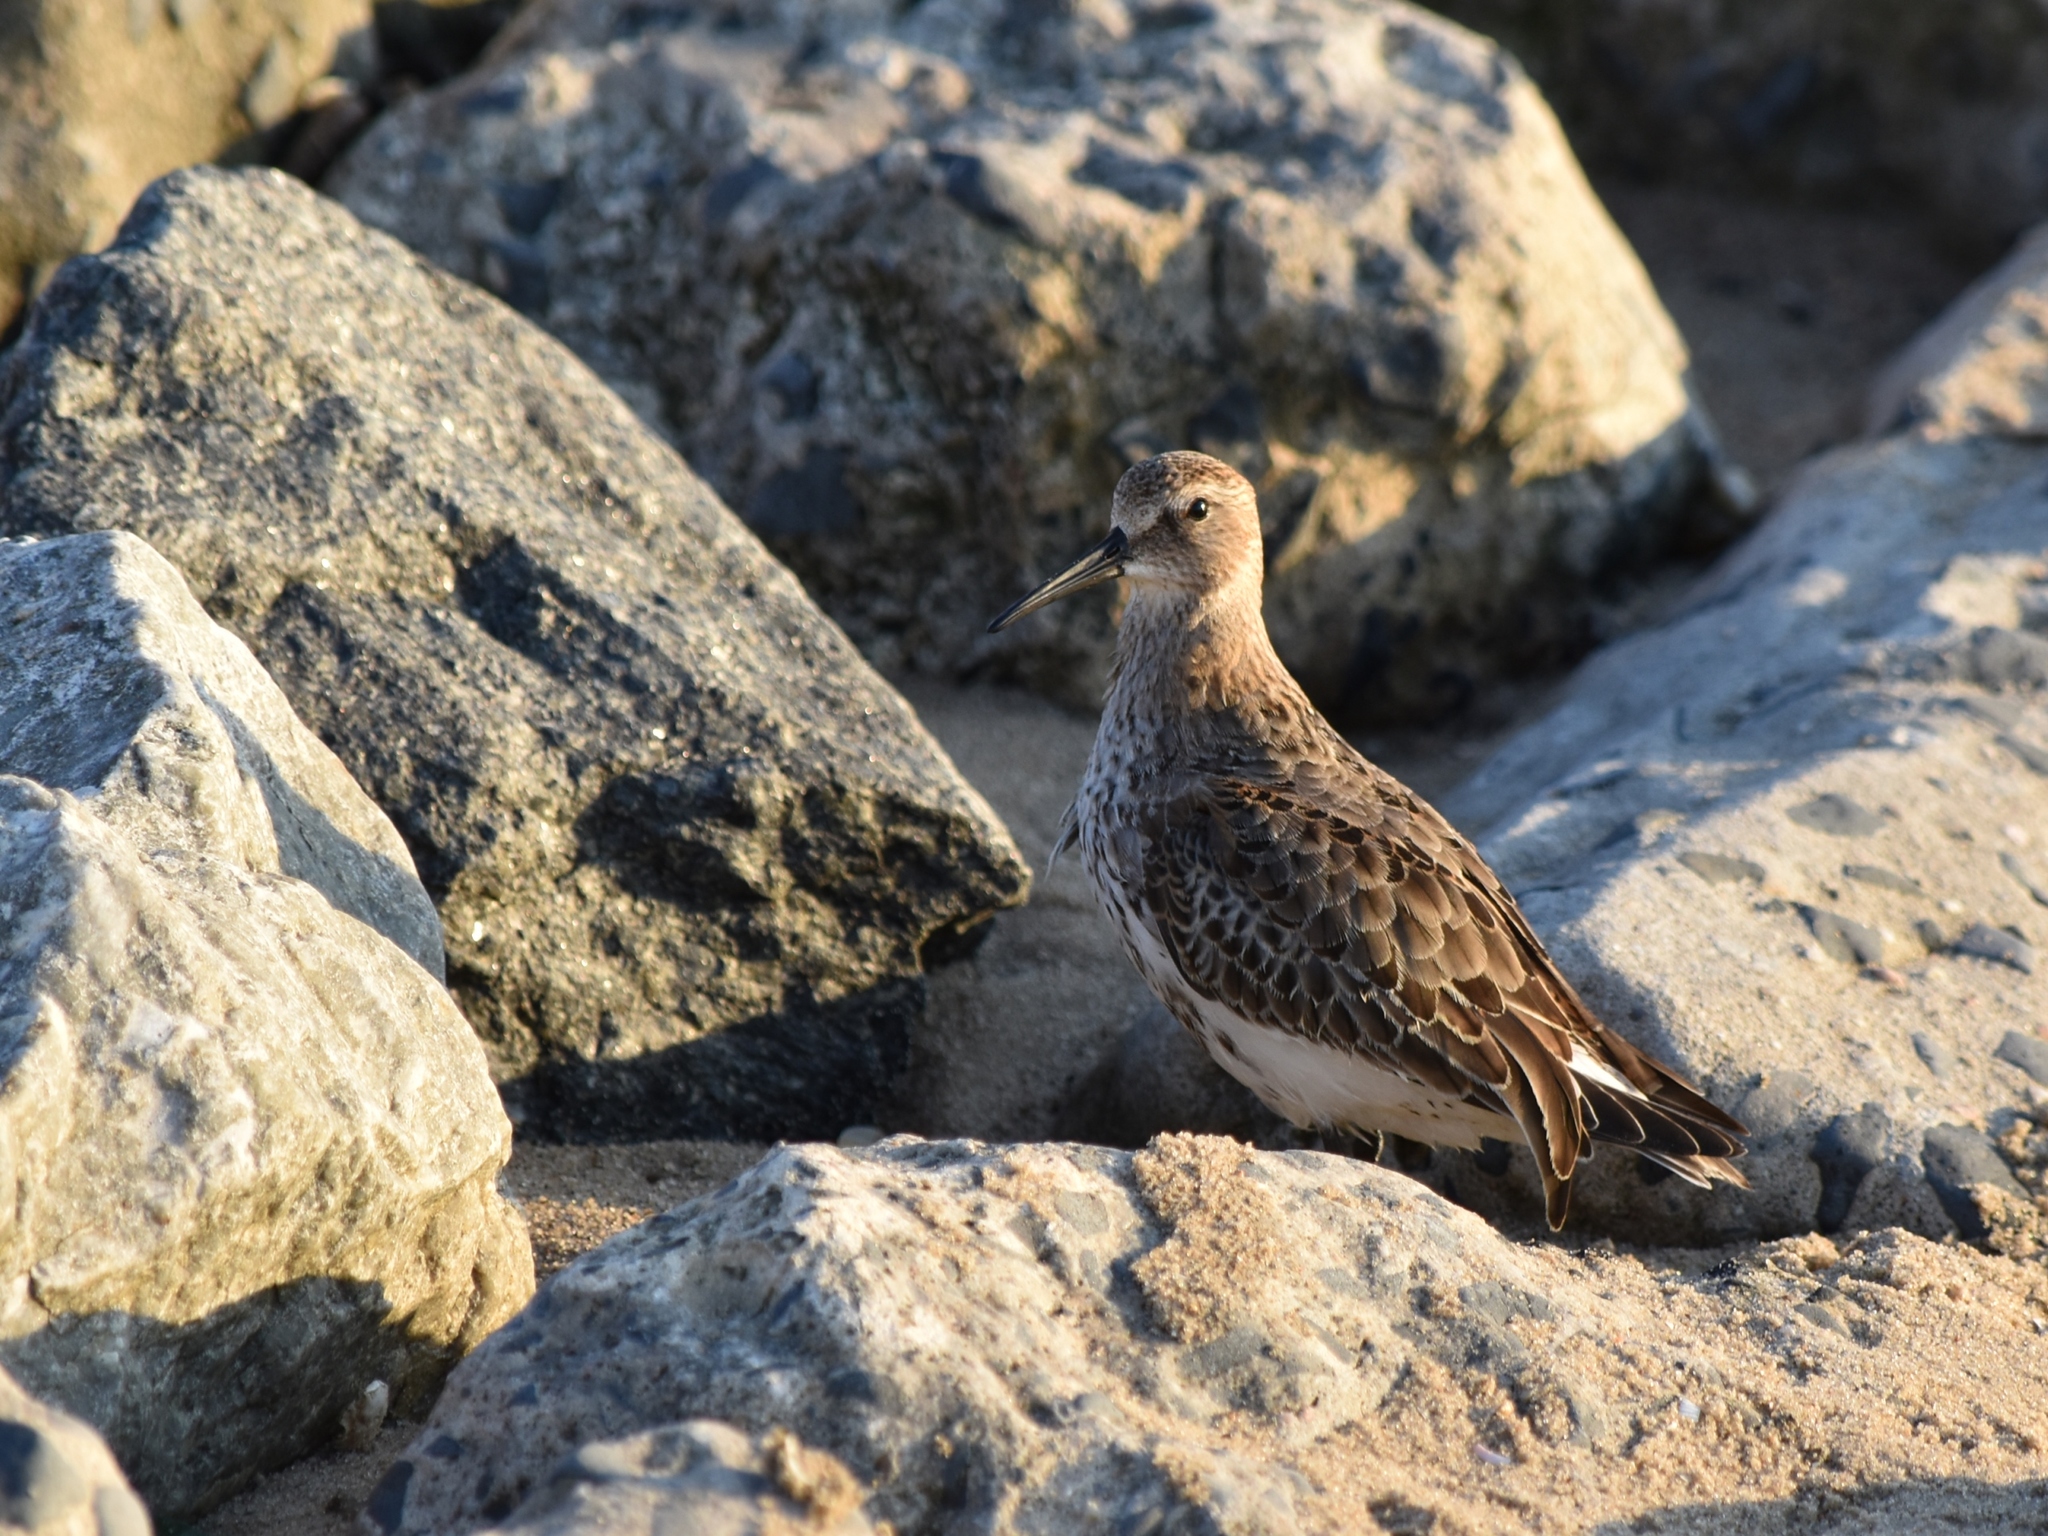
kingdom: Animalia
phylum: Chordata
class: Aves
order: Charadriiformes
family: Scolopacidae
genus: Calidris
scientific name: Calidris alpina
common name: Dunlin
